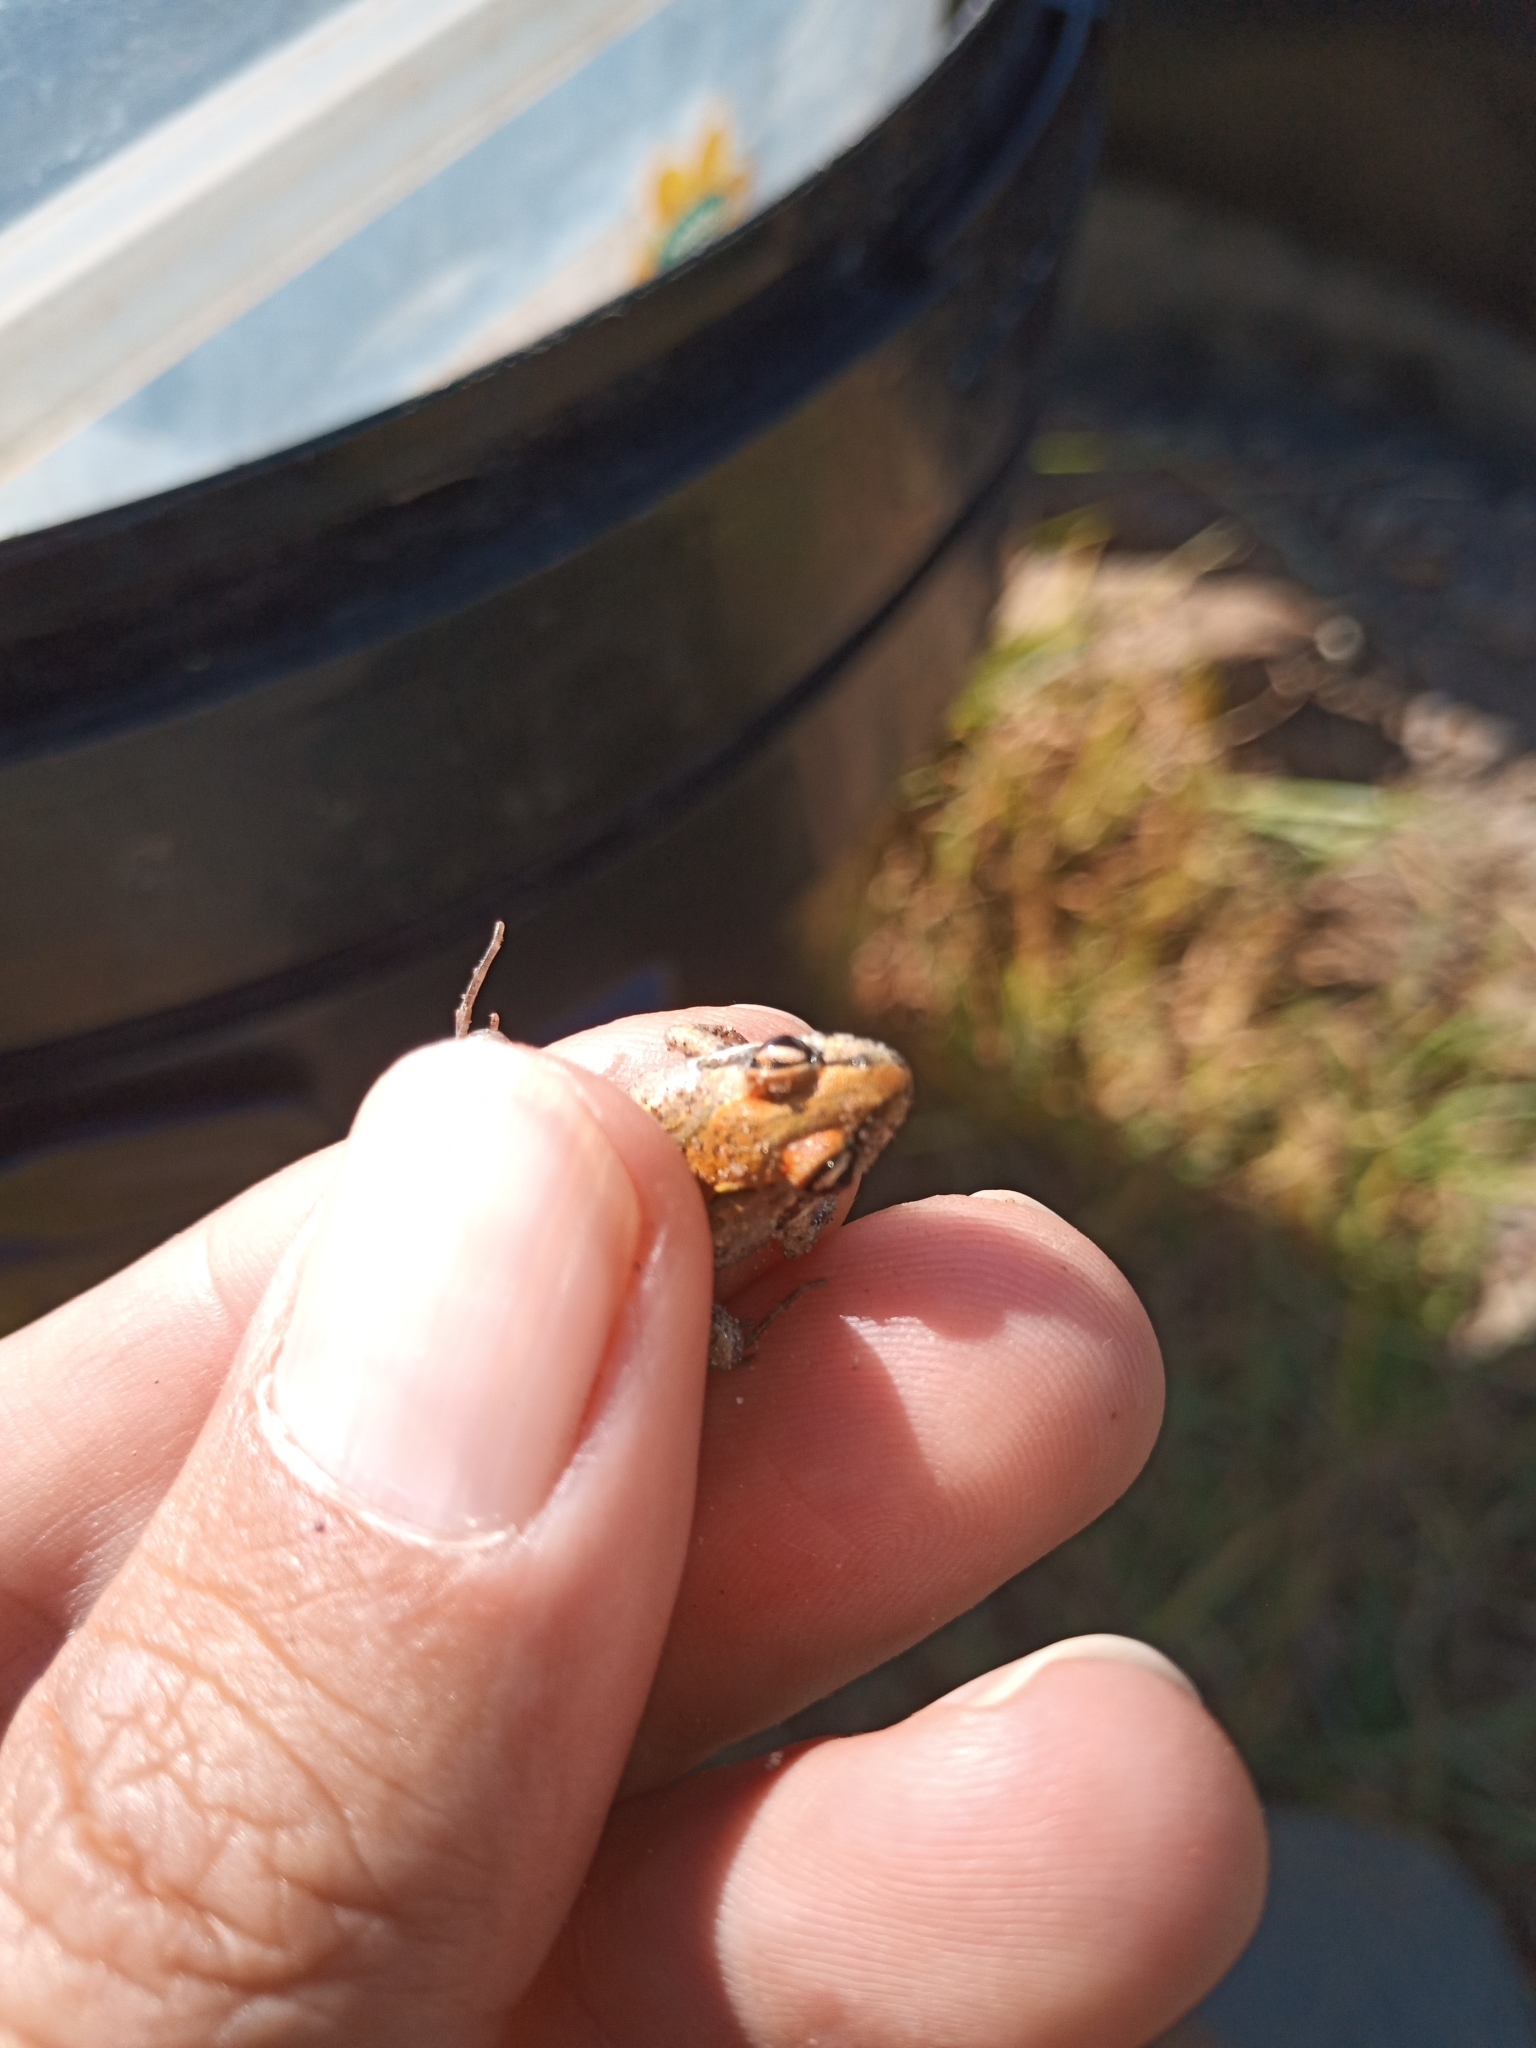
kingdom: Animalia
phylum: Chordata
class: Amphibia
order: Anura
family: Pyxicephalidae
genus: Strongylopus
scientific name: Strongylopus grayii
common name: Gray's stream frog
